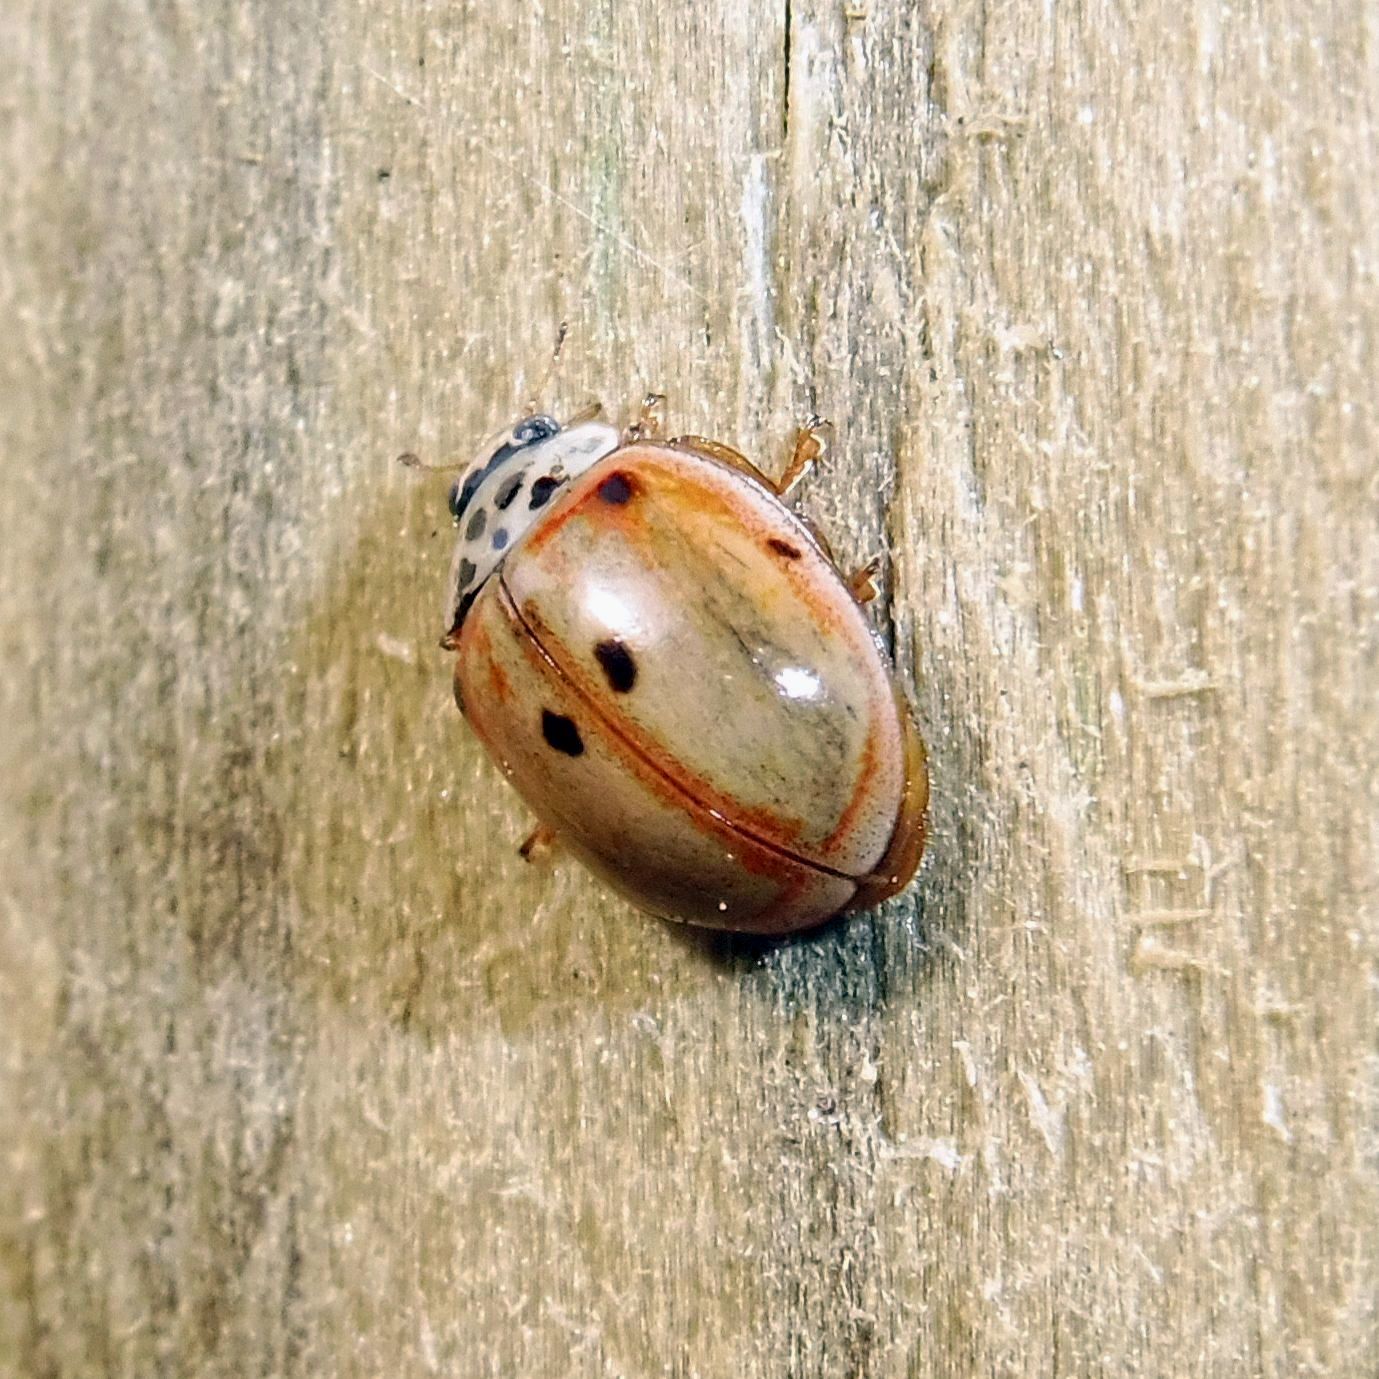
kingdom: Animalia
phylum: Arthropoda
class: Insecta
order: Coleoptera
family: Coccinellidae
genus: Adalia
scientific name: Adalia decempunctata
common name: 10-spot ladybird
